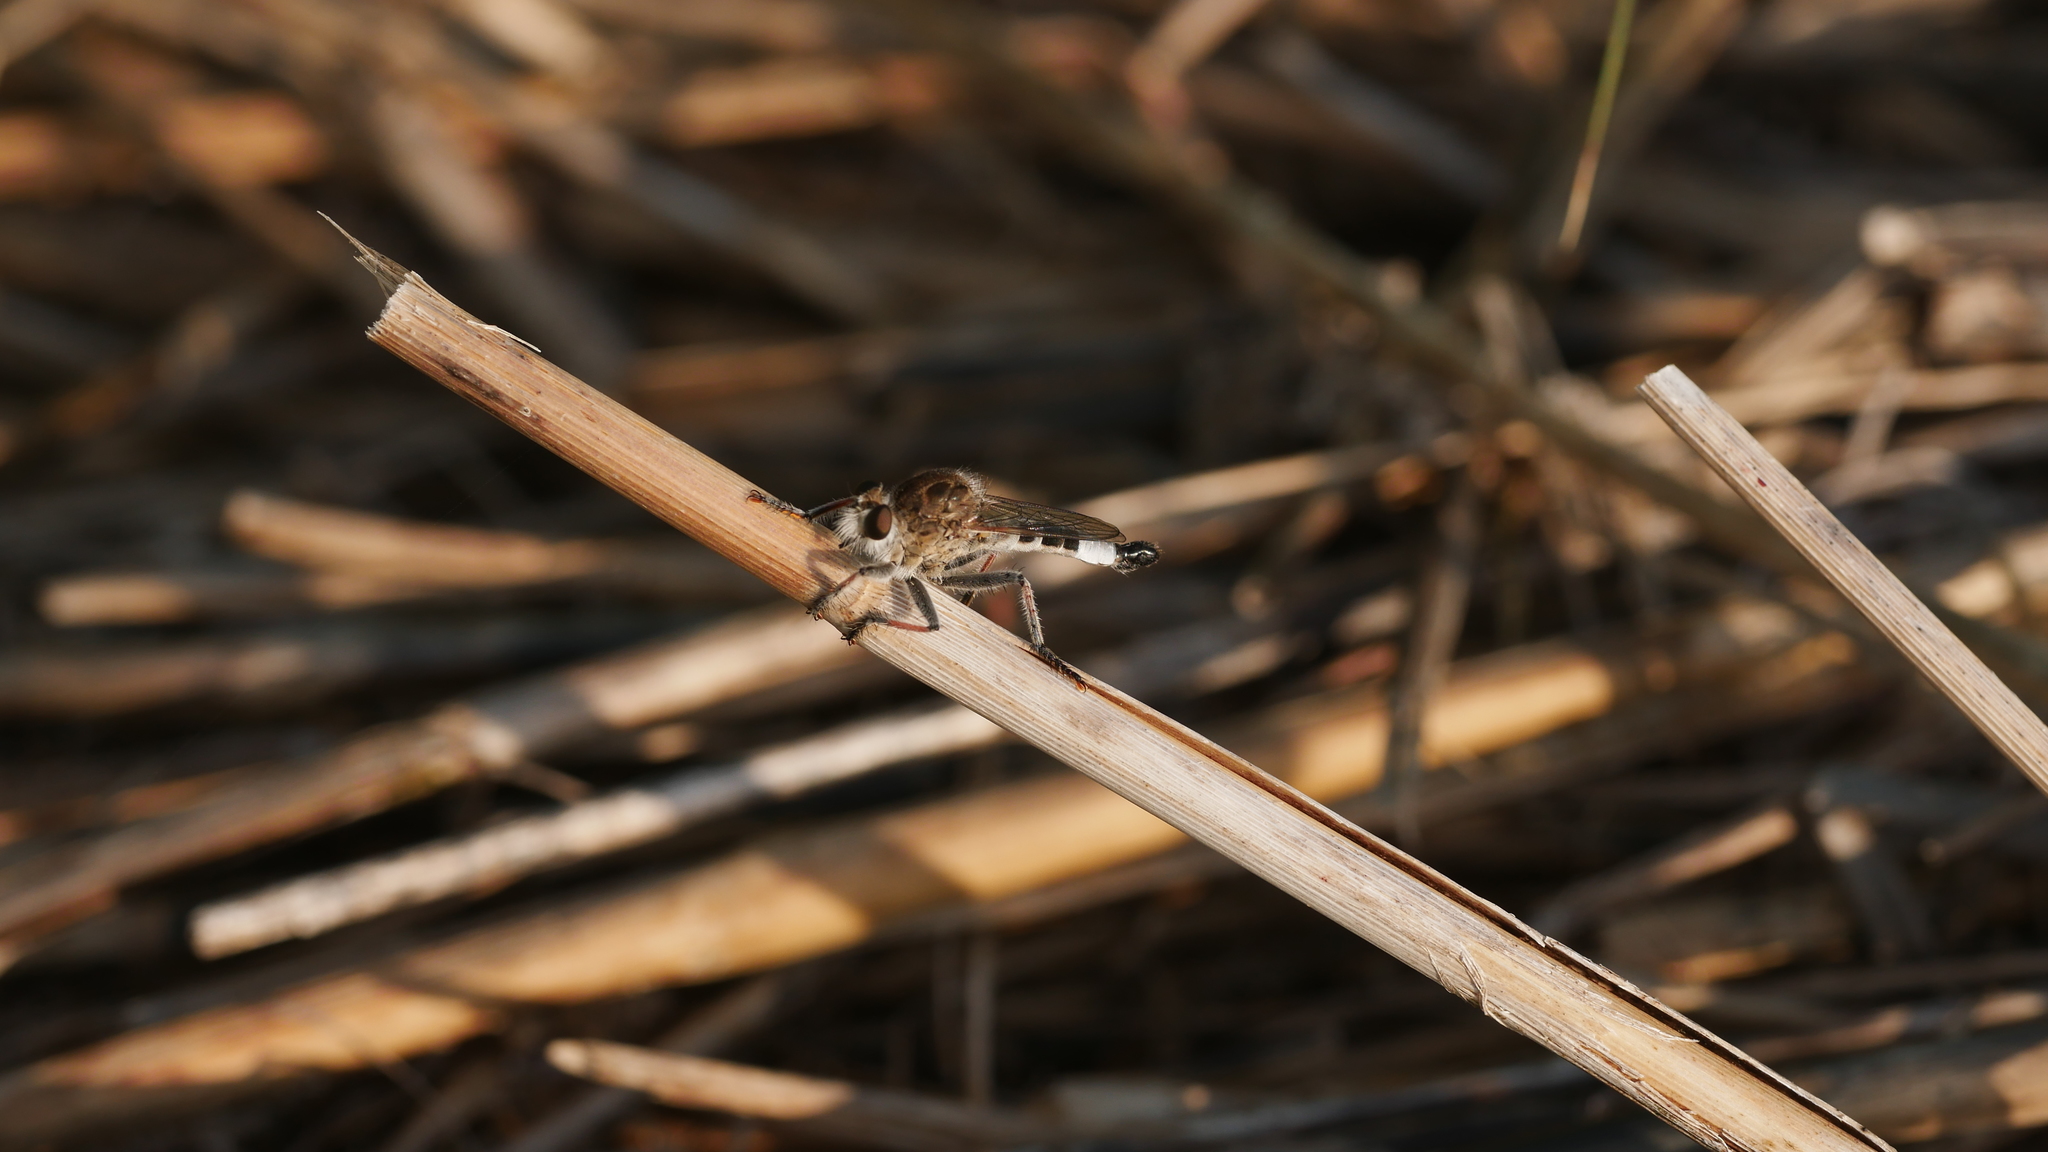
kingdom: Animalia
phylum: Arthropoda
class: Insecta
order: Diptera
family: Asilidae
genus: Efferia
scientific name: Efferia albibarbis
